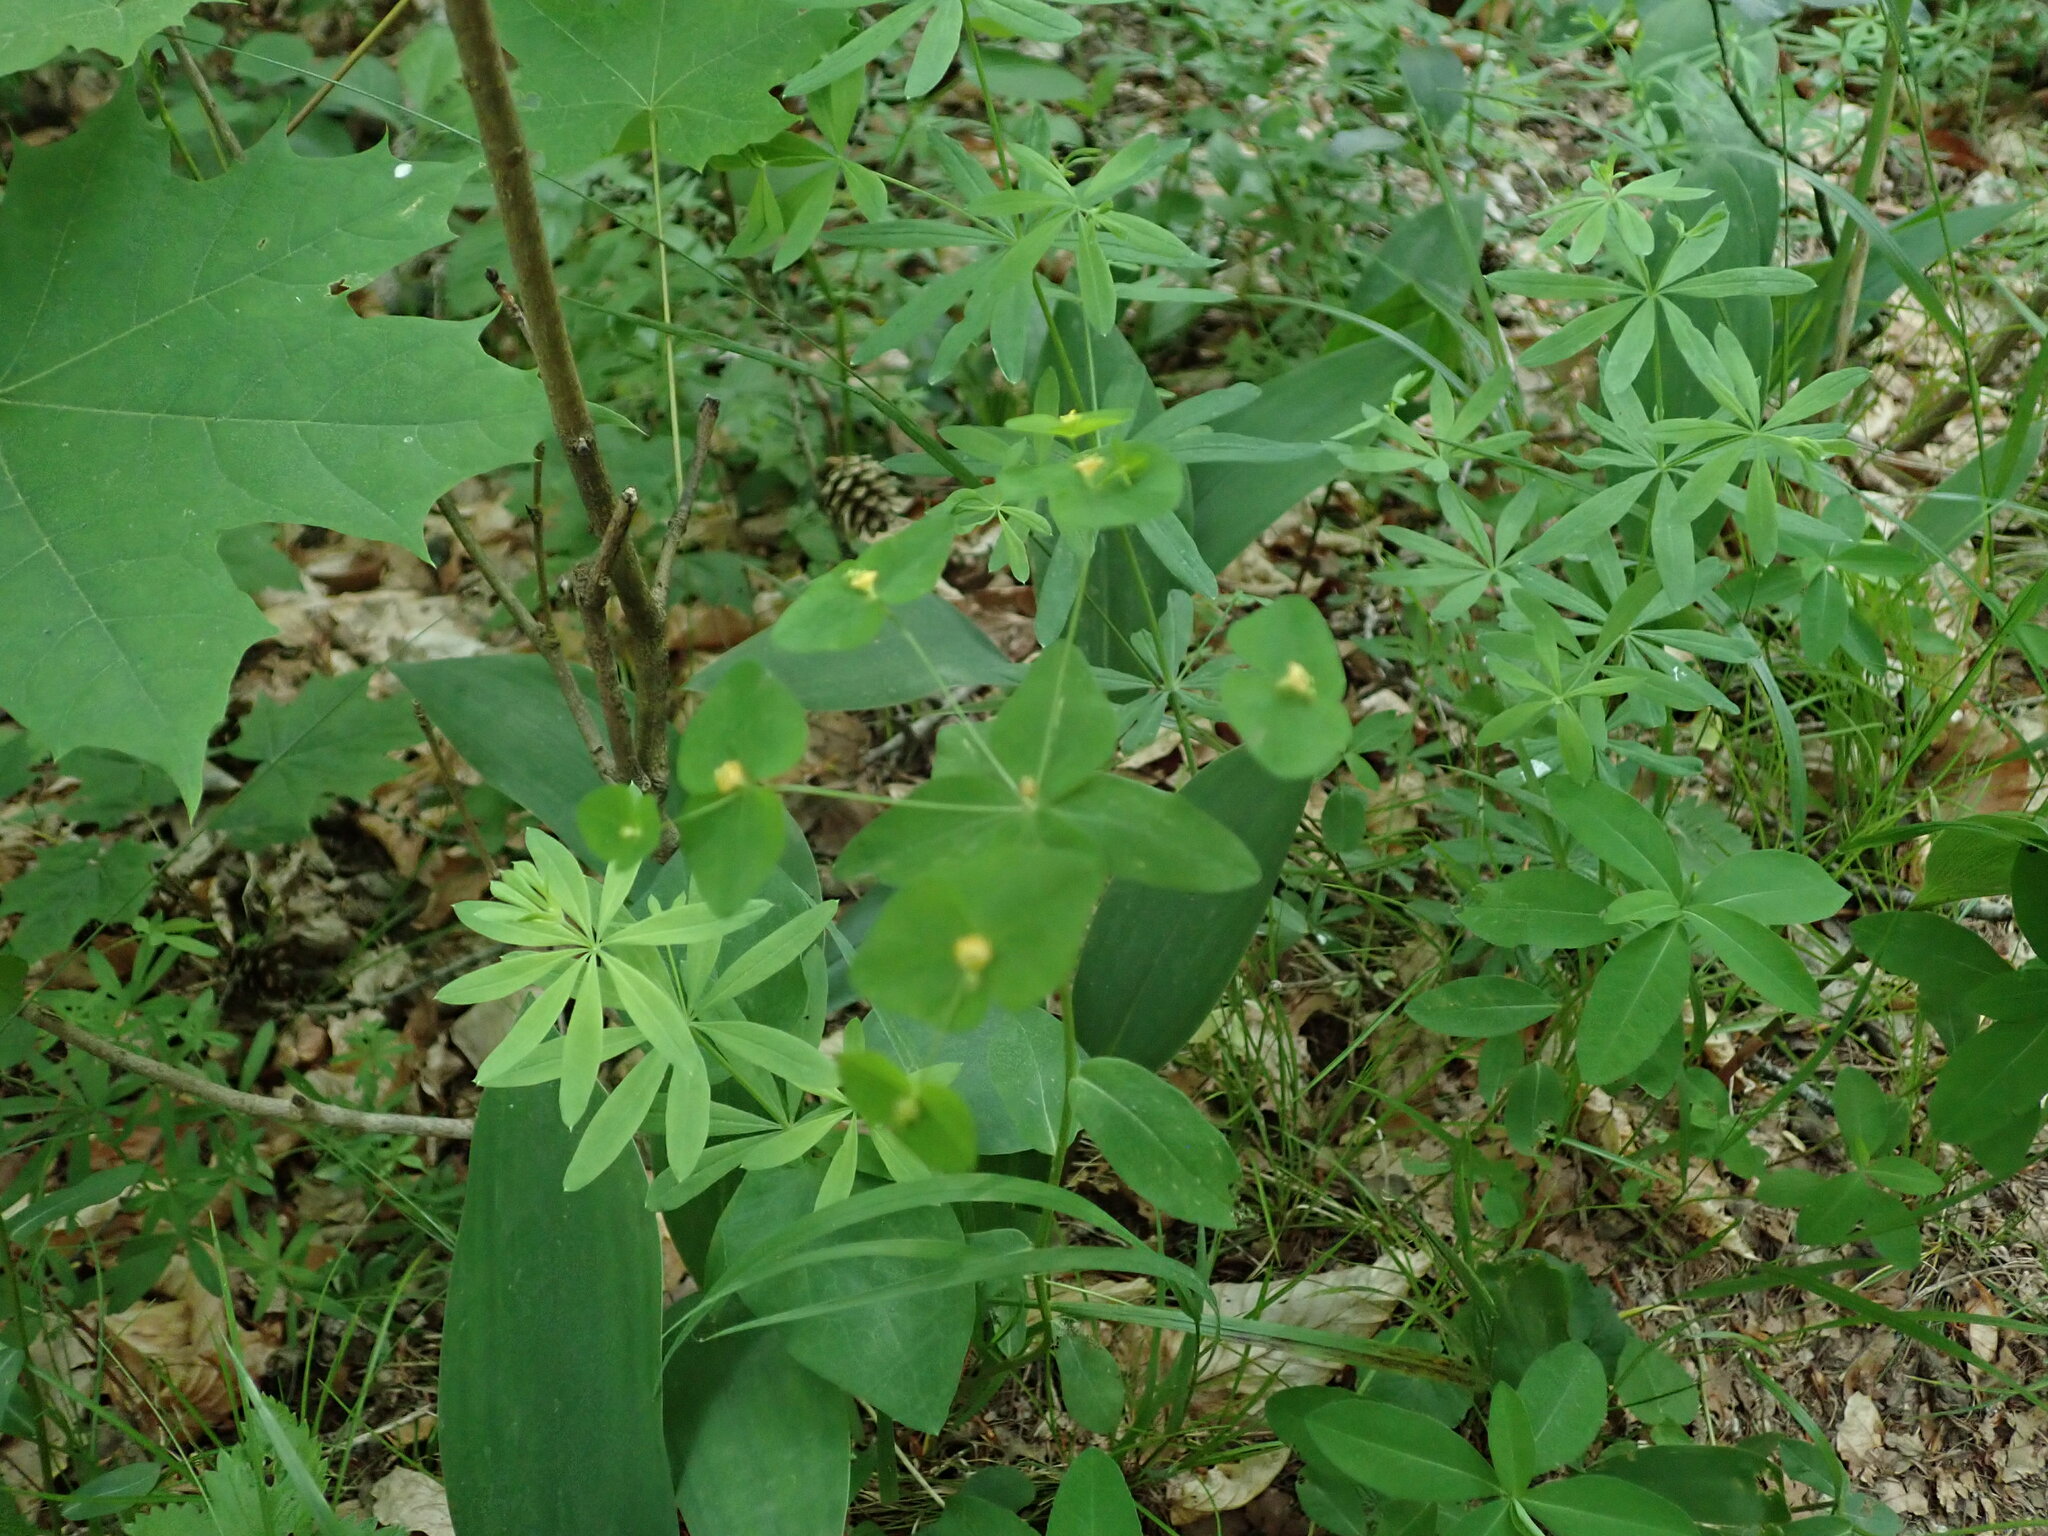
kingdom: Plantae
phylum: Tracheophyta
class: Magnoliopsida
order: Malpighiales
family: Euphorbiaceae
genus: Euphorbia
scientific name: Euphorbia dulcis
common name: Sweet spurge
